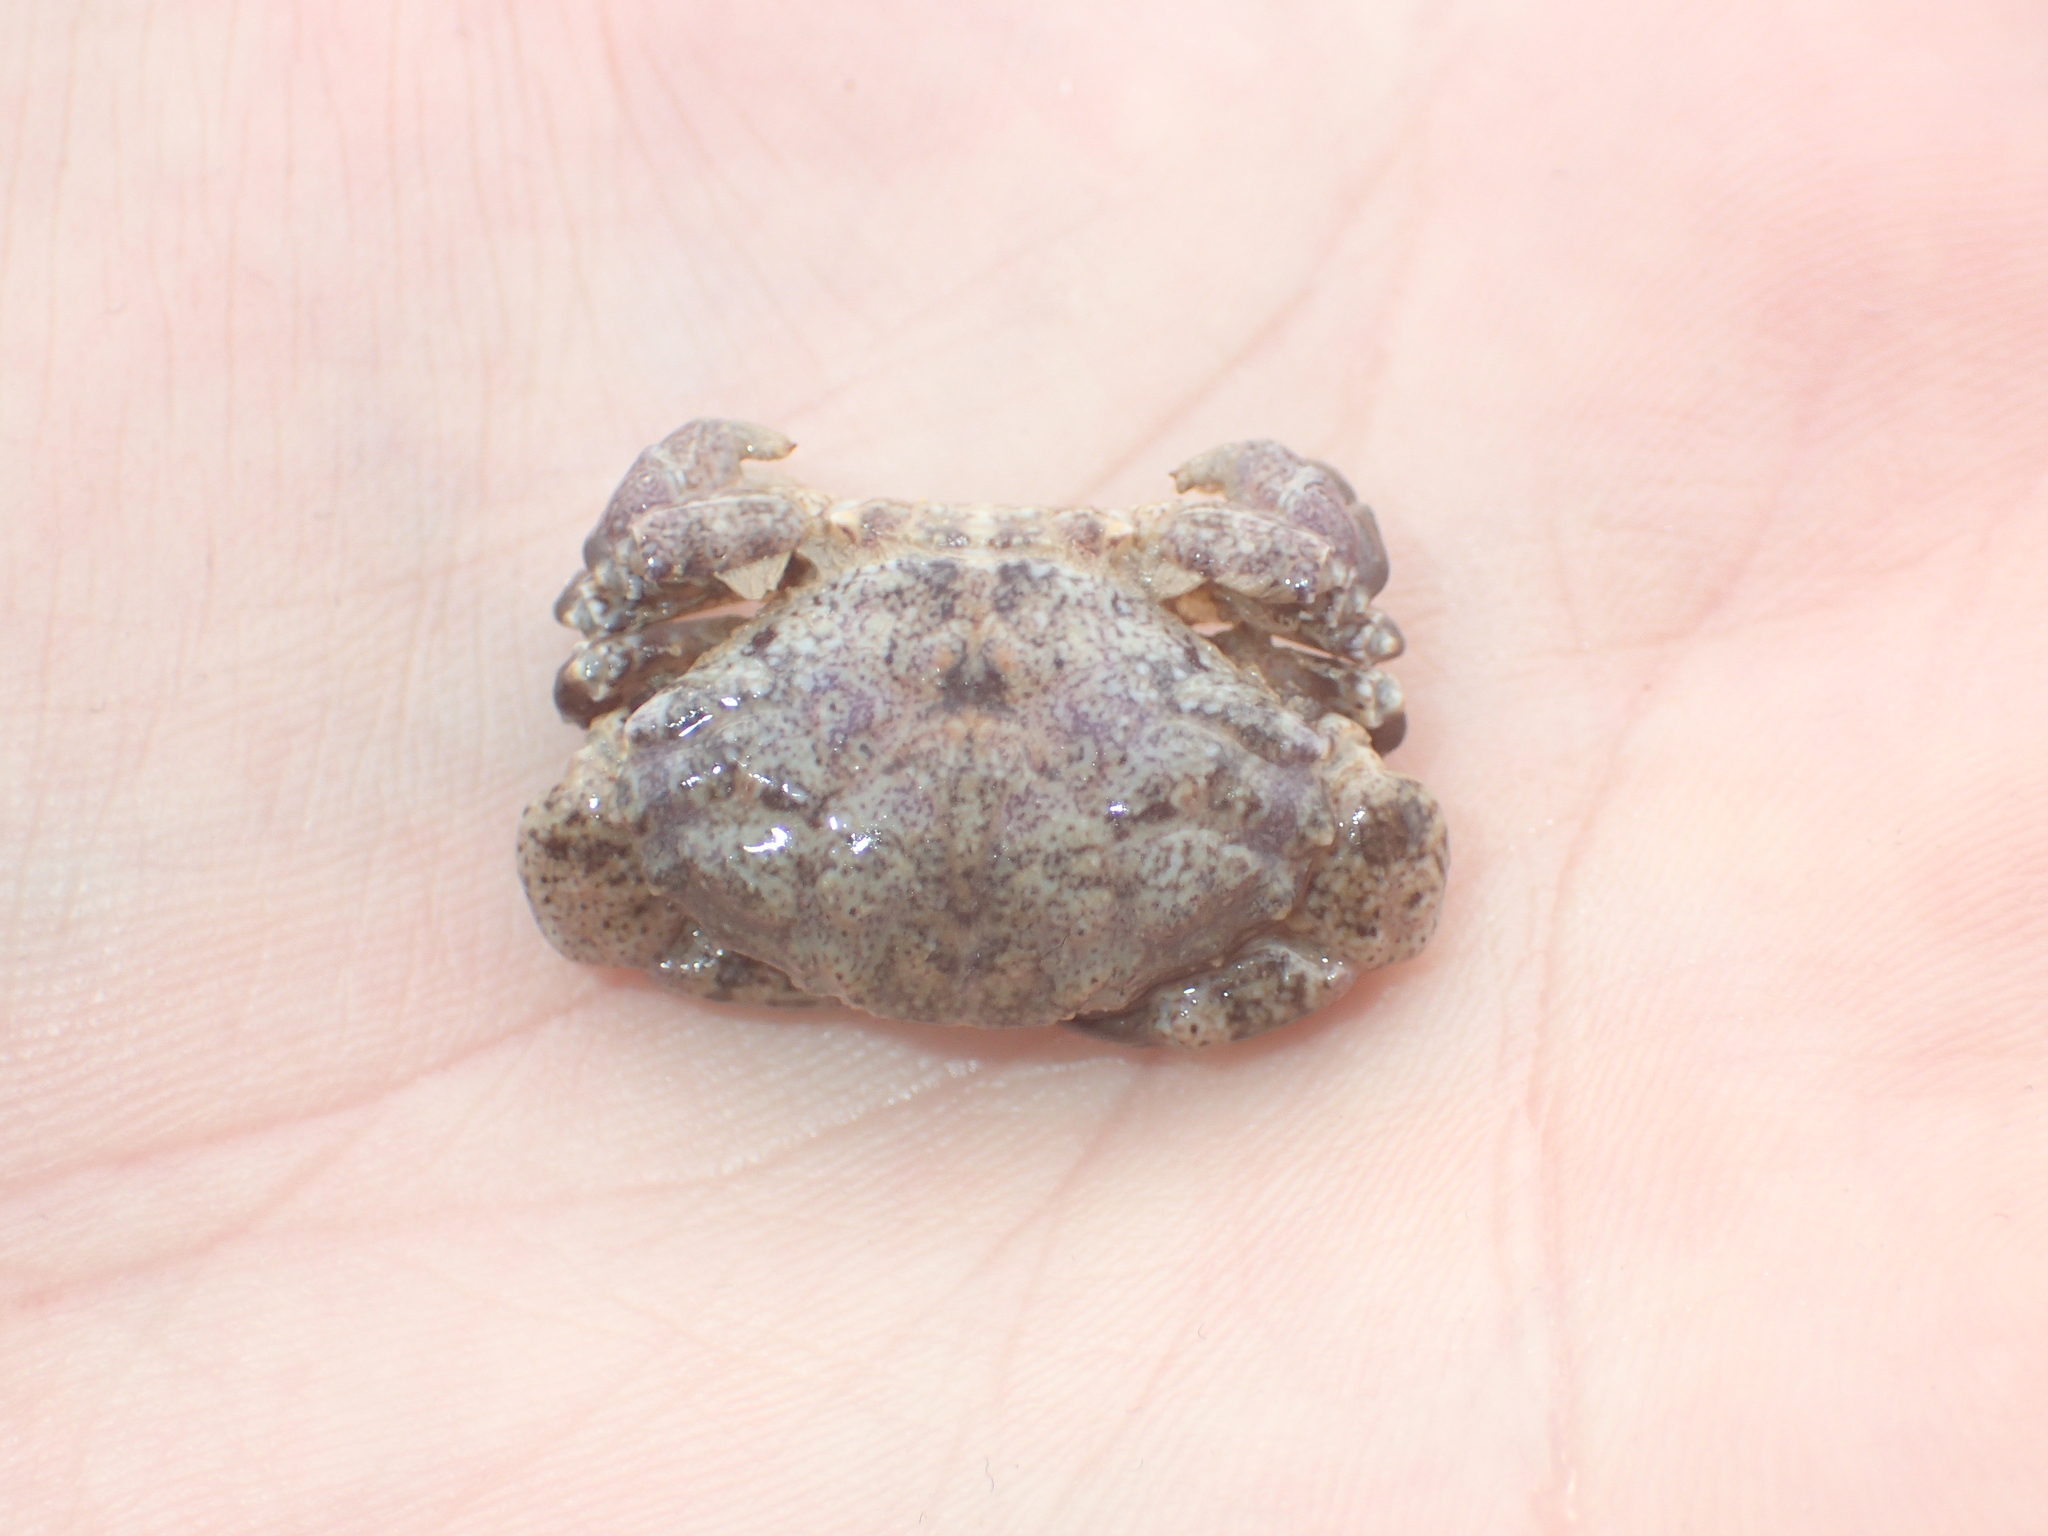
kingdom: Animalia
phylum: Arthropoda
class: Malacostraca
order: Decapoda
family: Xanthidae
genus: Xantho
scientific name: Xantho hydrophilus
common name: Montagu's crab
